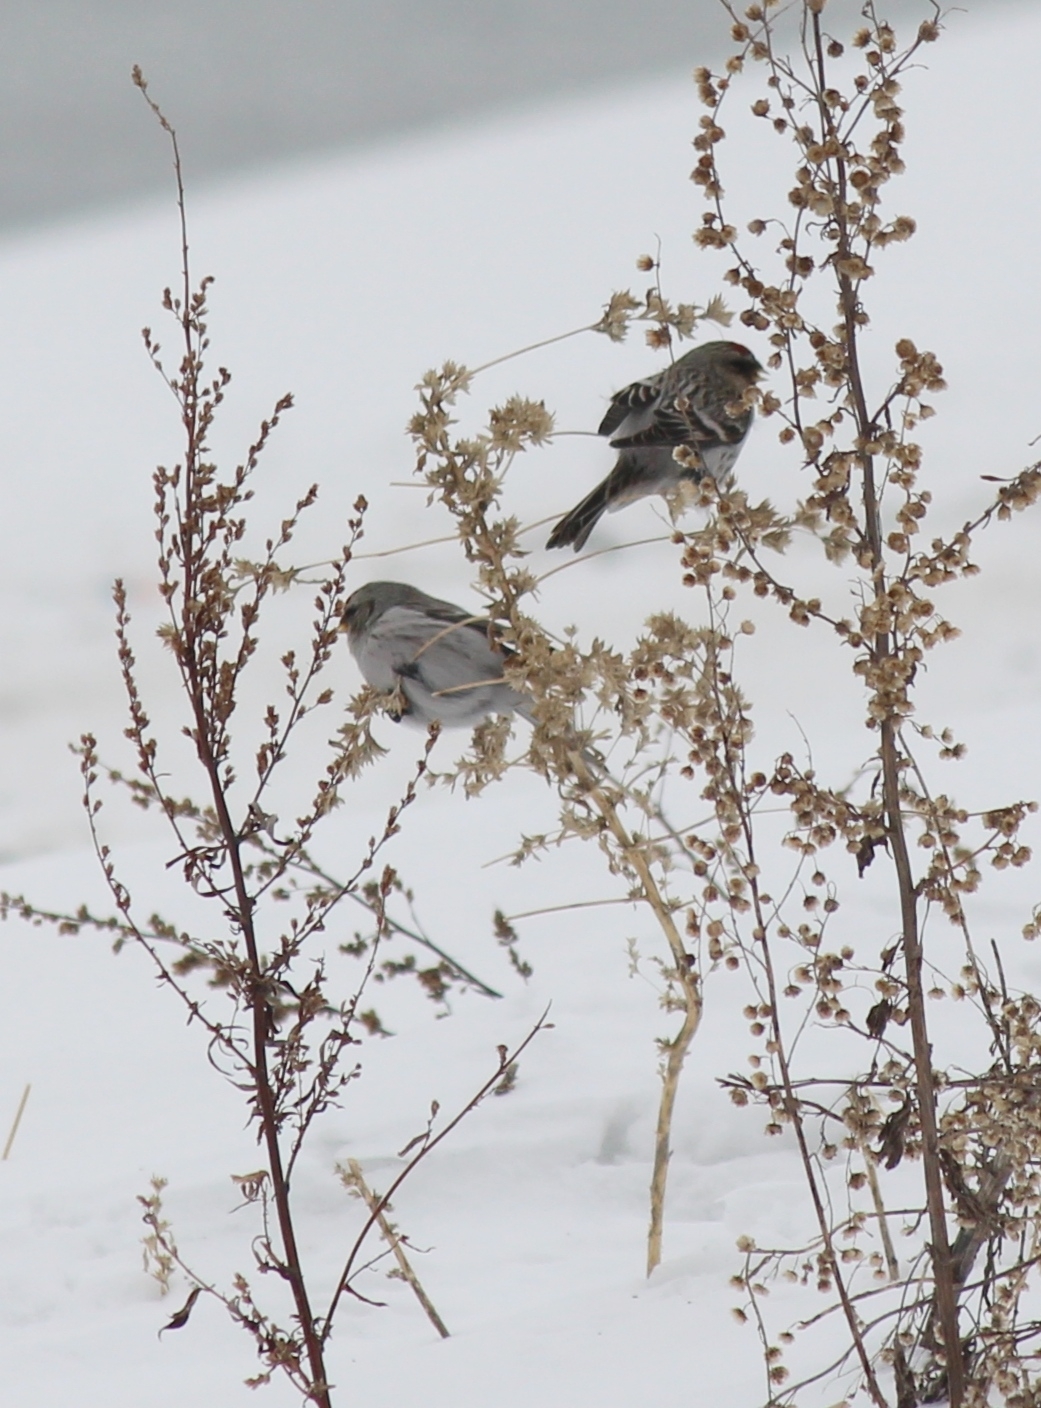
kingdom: Animalia
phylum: Chordata
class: Aves
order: Passeriformes
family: Fringillidae
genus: Acanthis
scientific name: Acanthis hornemanni
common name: Arctic redpoll
